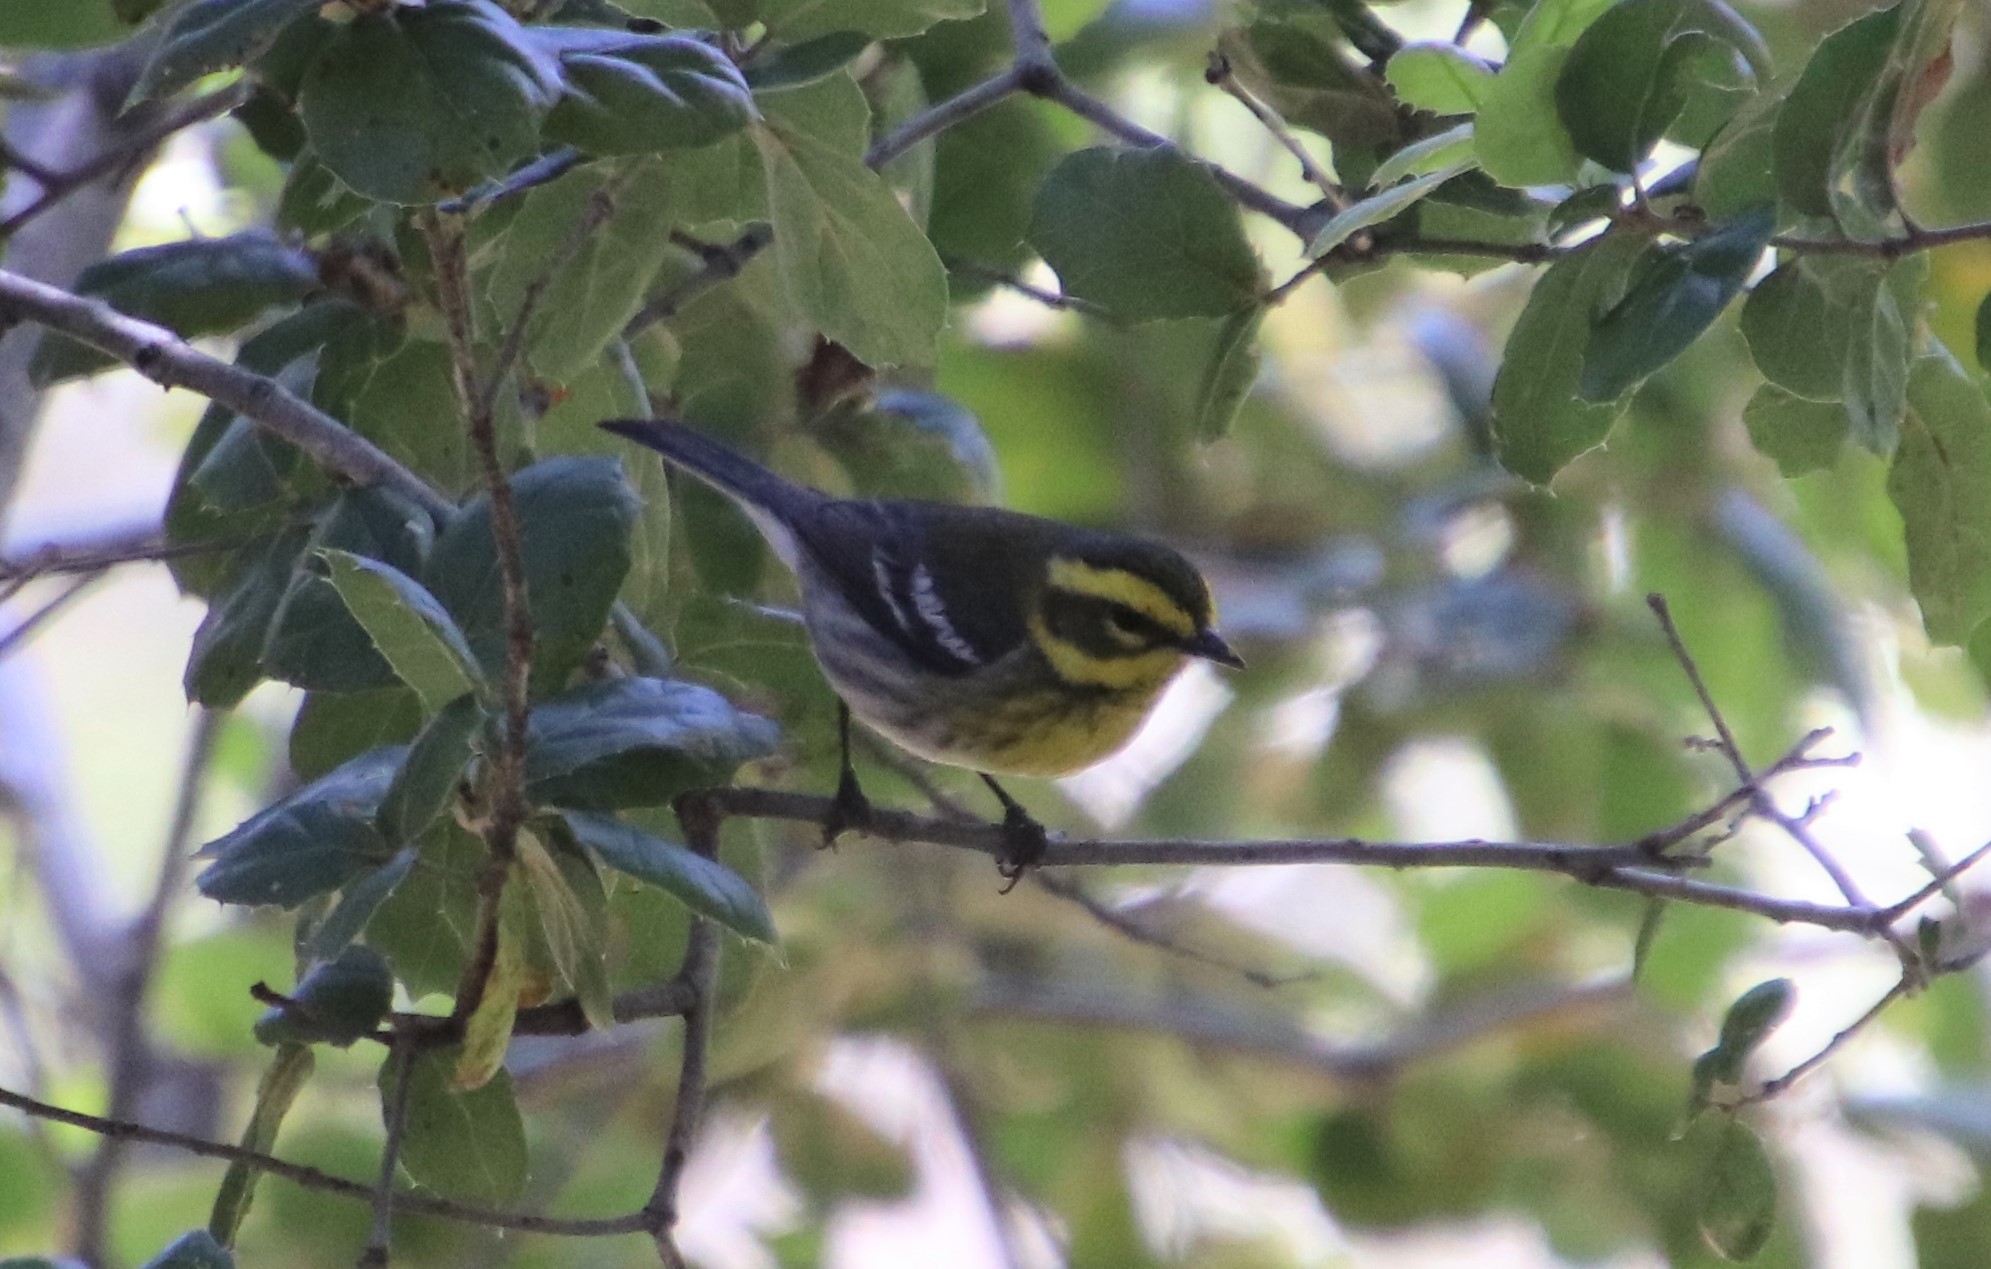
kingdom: Animalia
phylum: Chordata
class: Aves
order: Passeriformes
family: Parulidae
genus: Setophaga
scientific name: Setophaga townsendi
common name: Townsend's warbler
